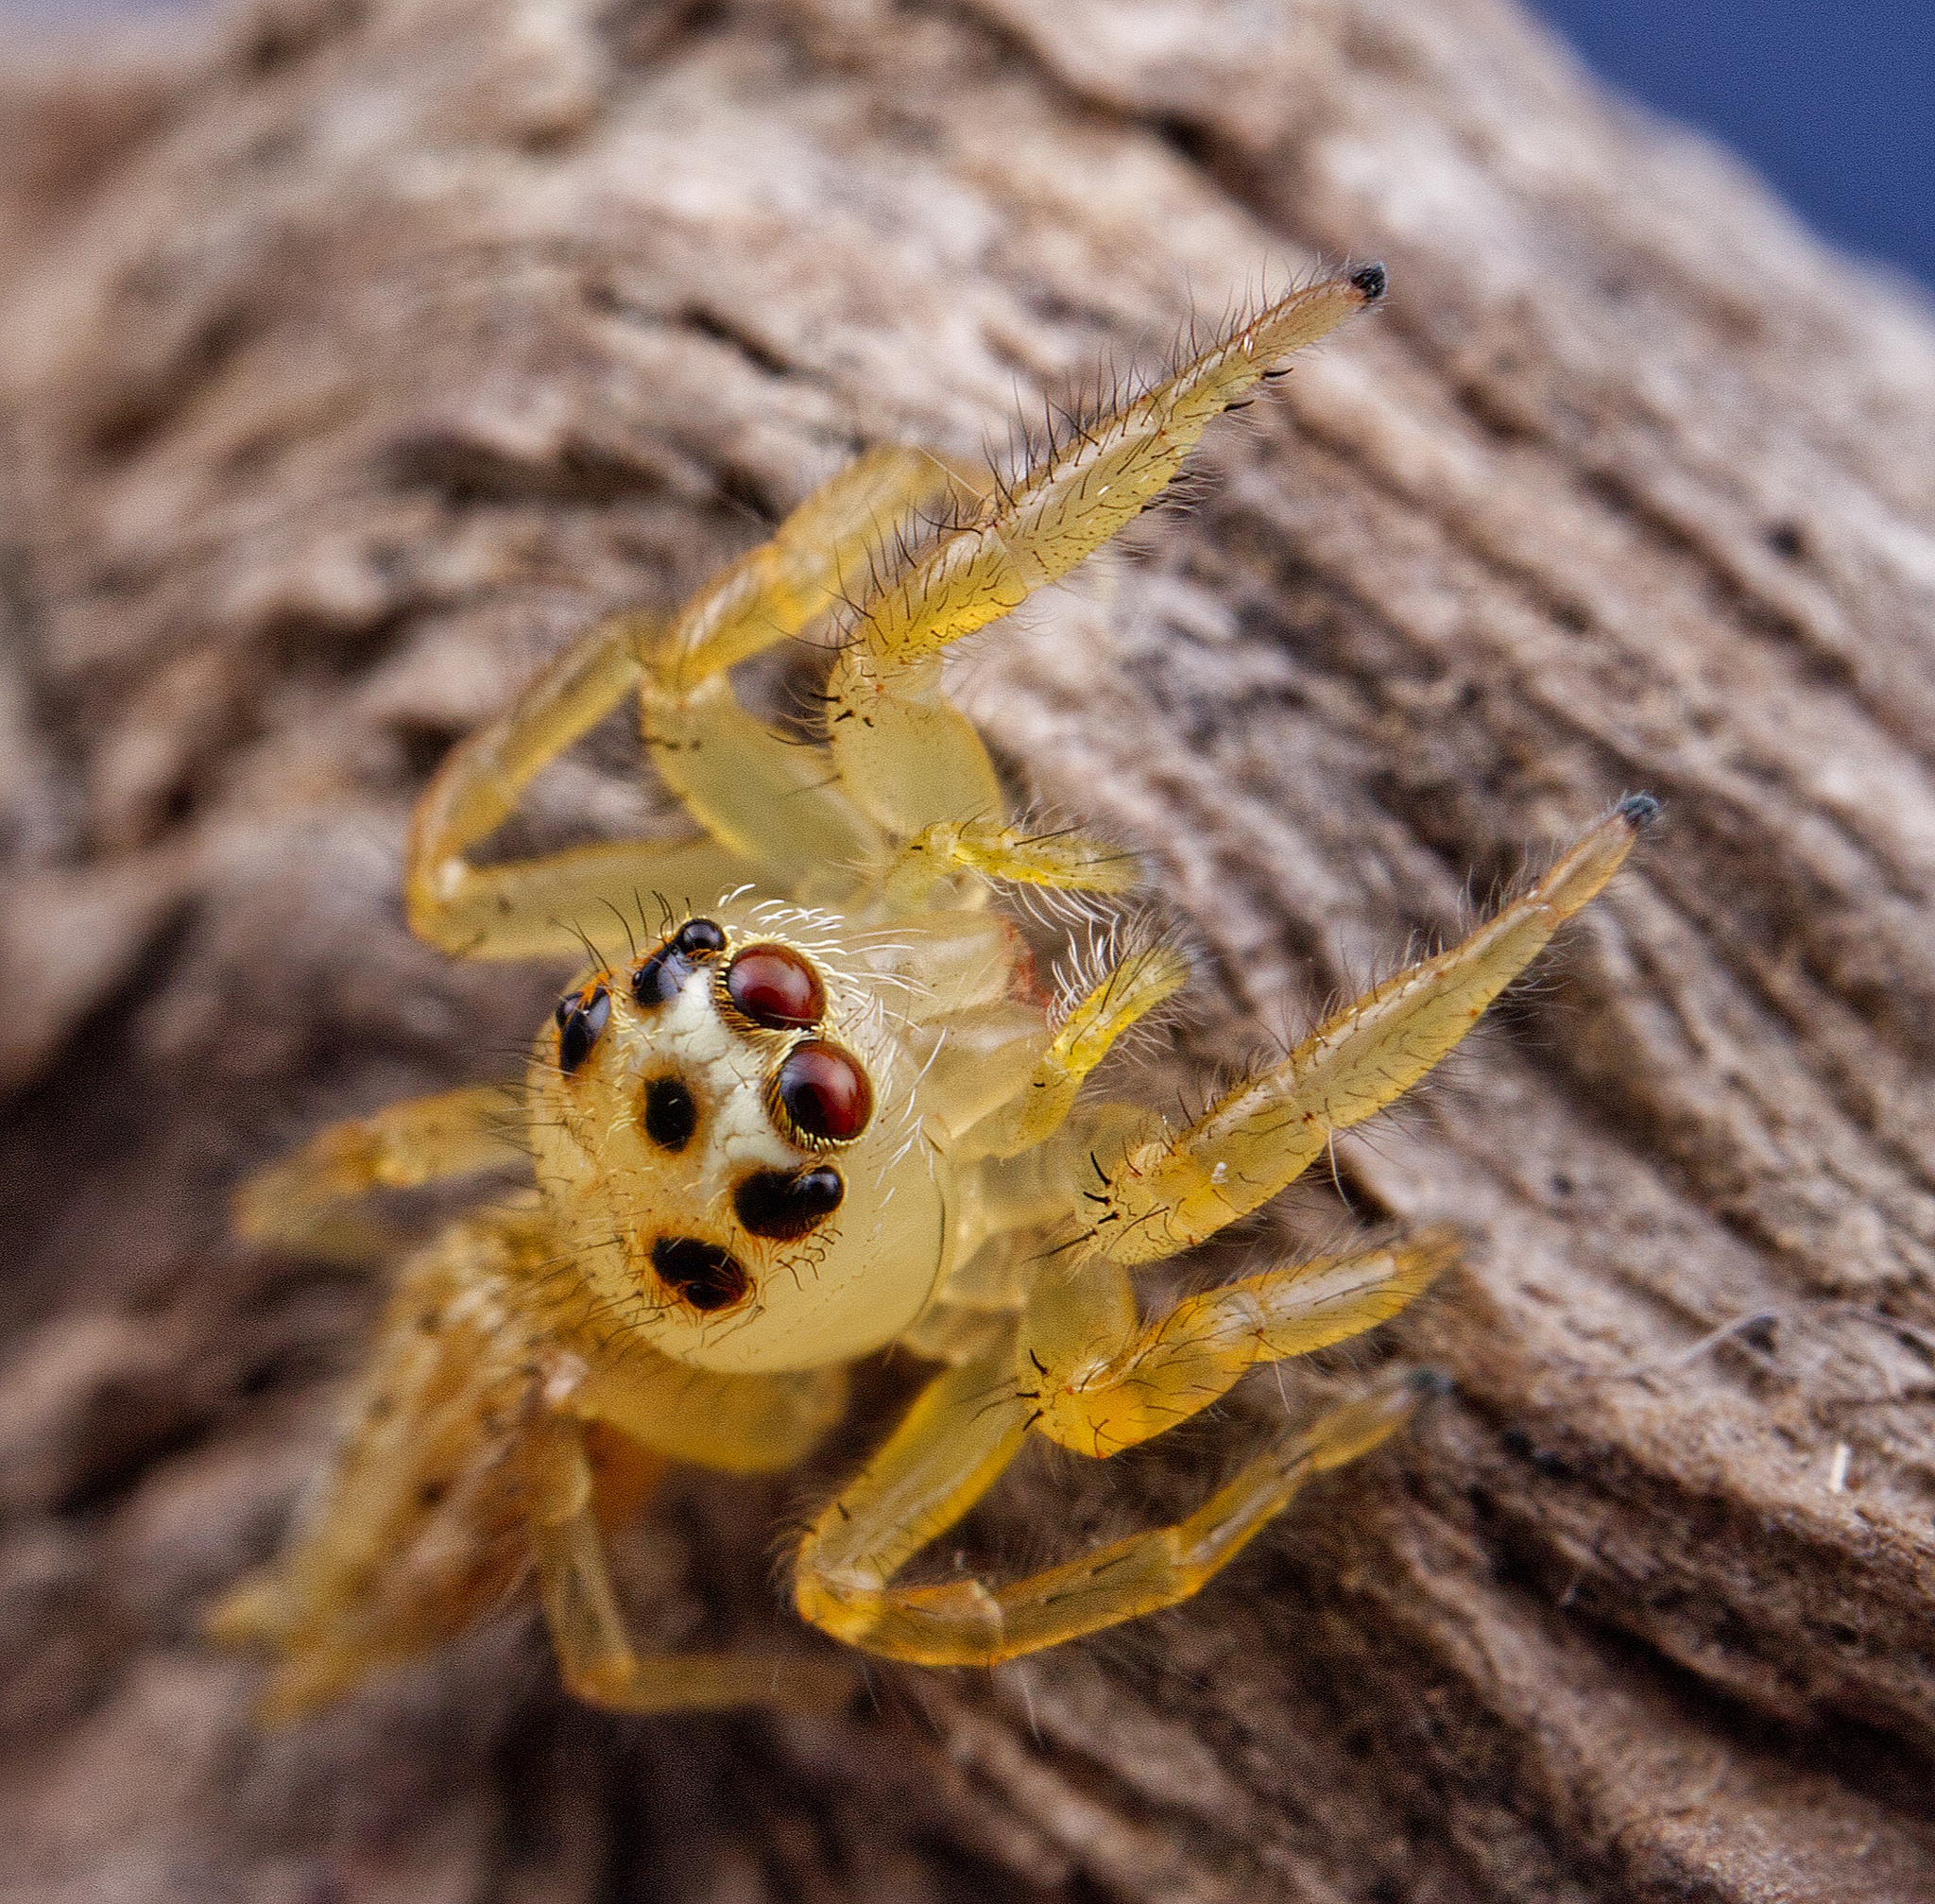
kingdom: Animalia
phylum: Arthropoda
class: Arachnida
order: Araneae
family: Salticidae
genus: Colonus
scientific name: Colonus puerperus
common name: Jumping spiders
